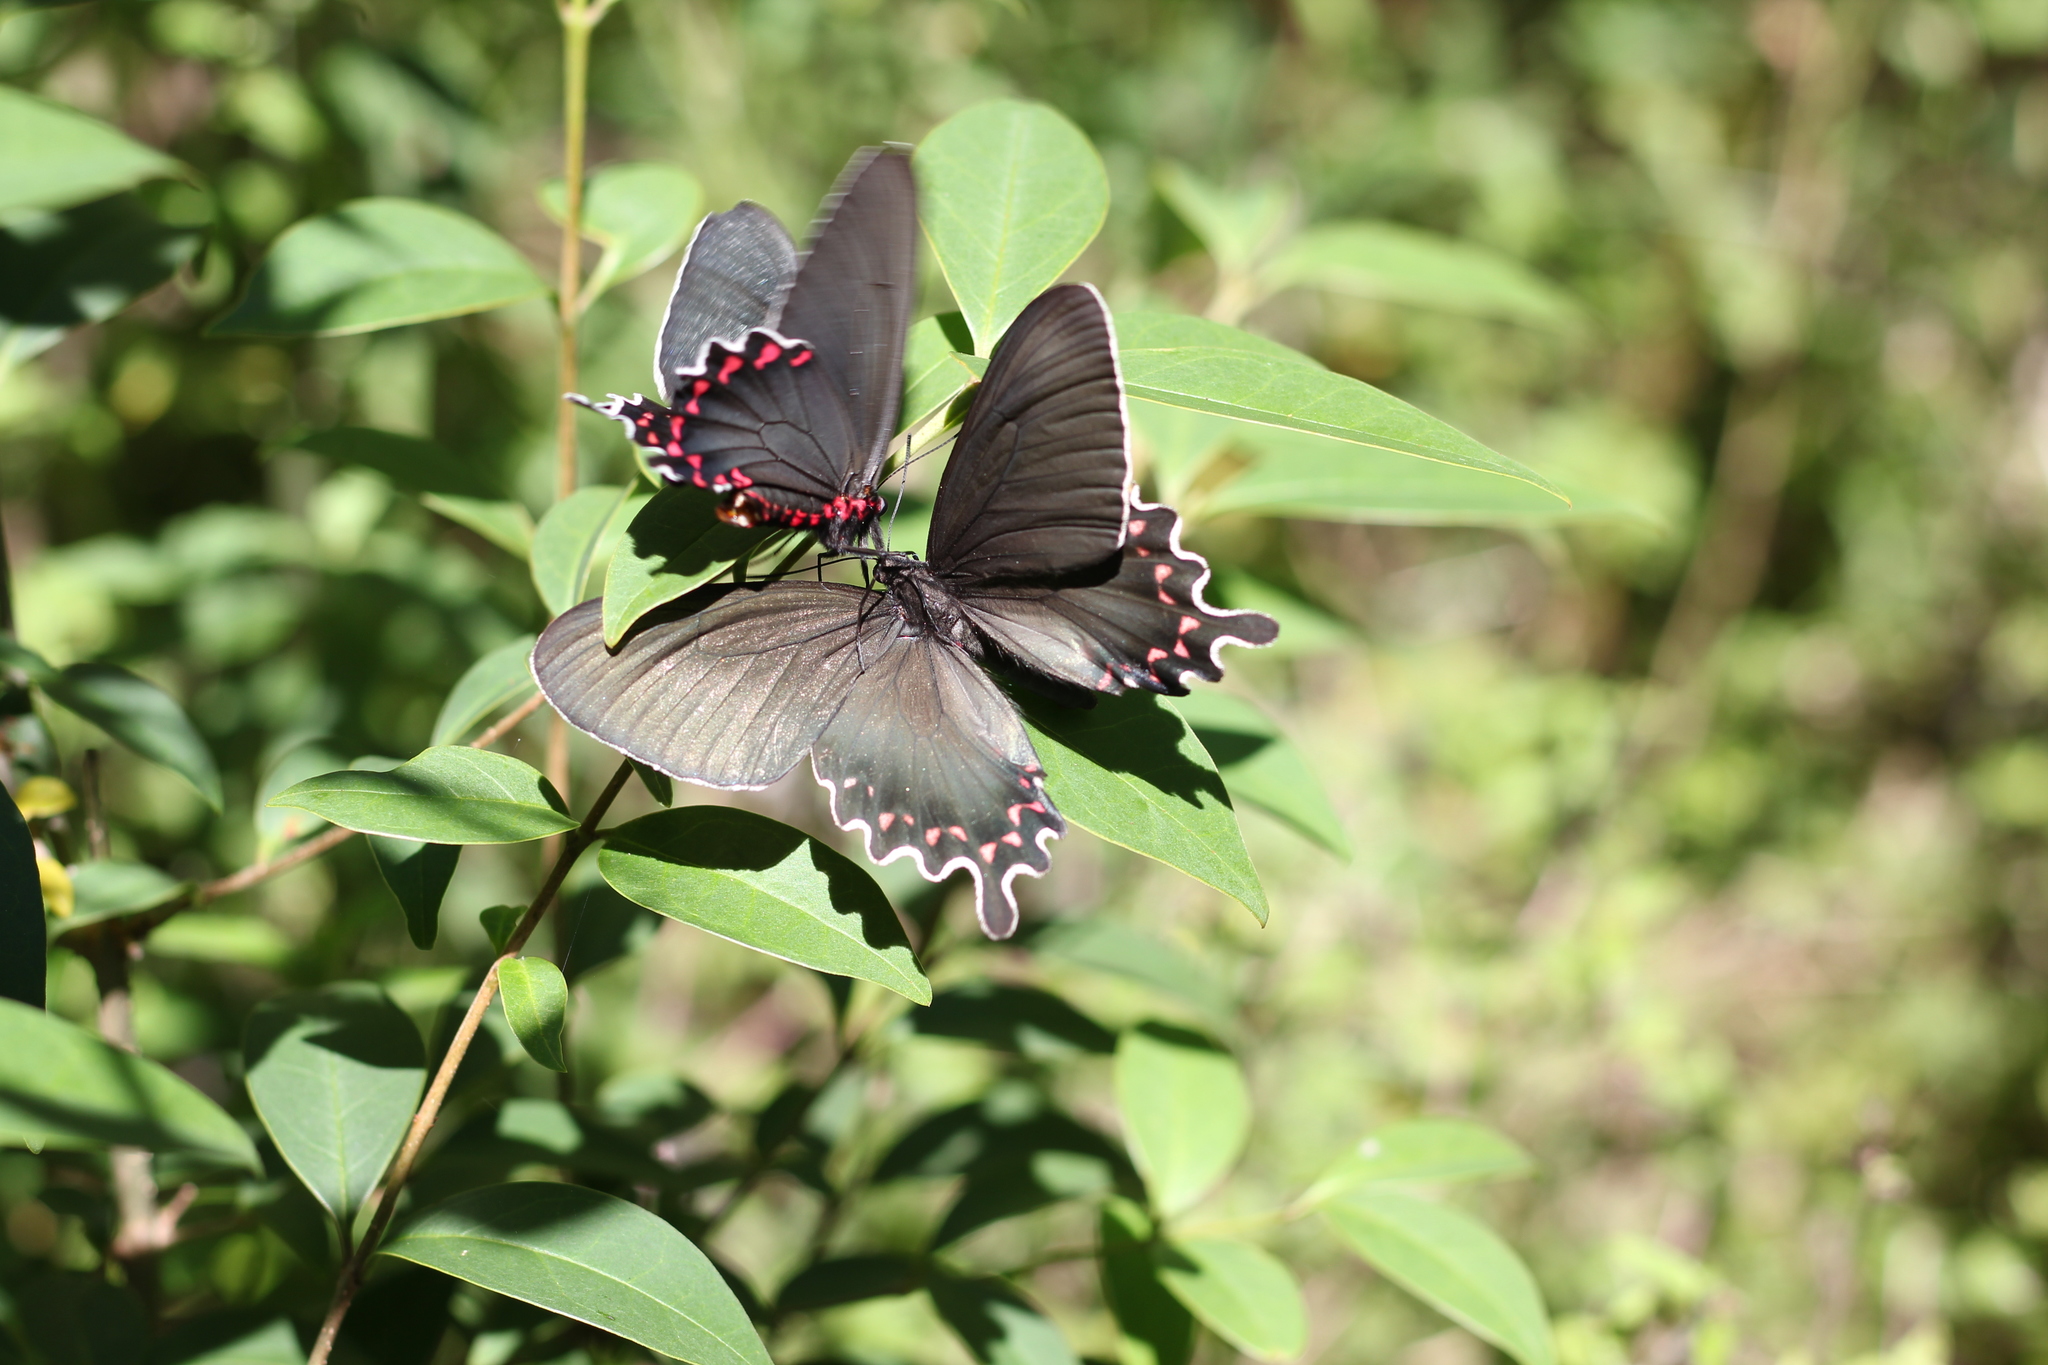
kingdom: Animalia
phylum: Arthropoda
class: Insecta
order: Lepidoptera
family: Papilionidae
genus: Parides
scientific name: Parides bunichus
